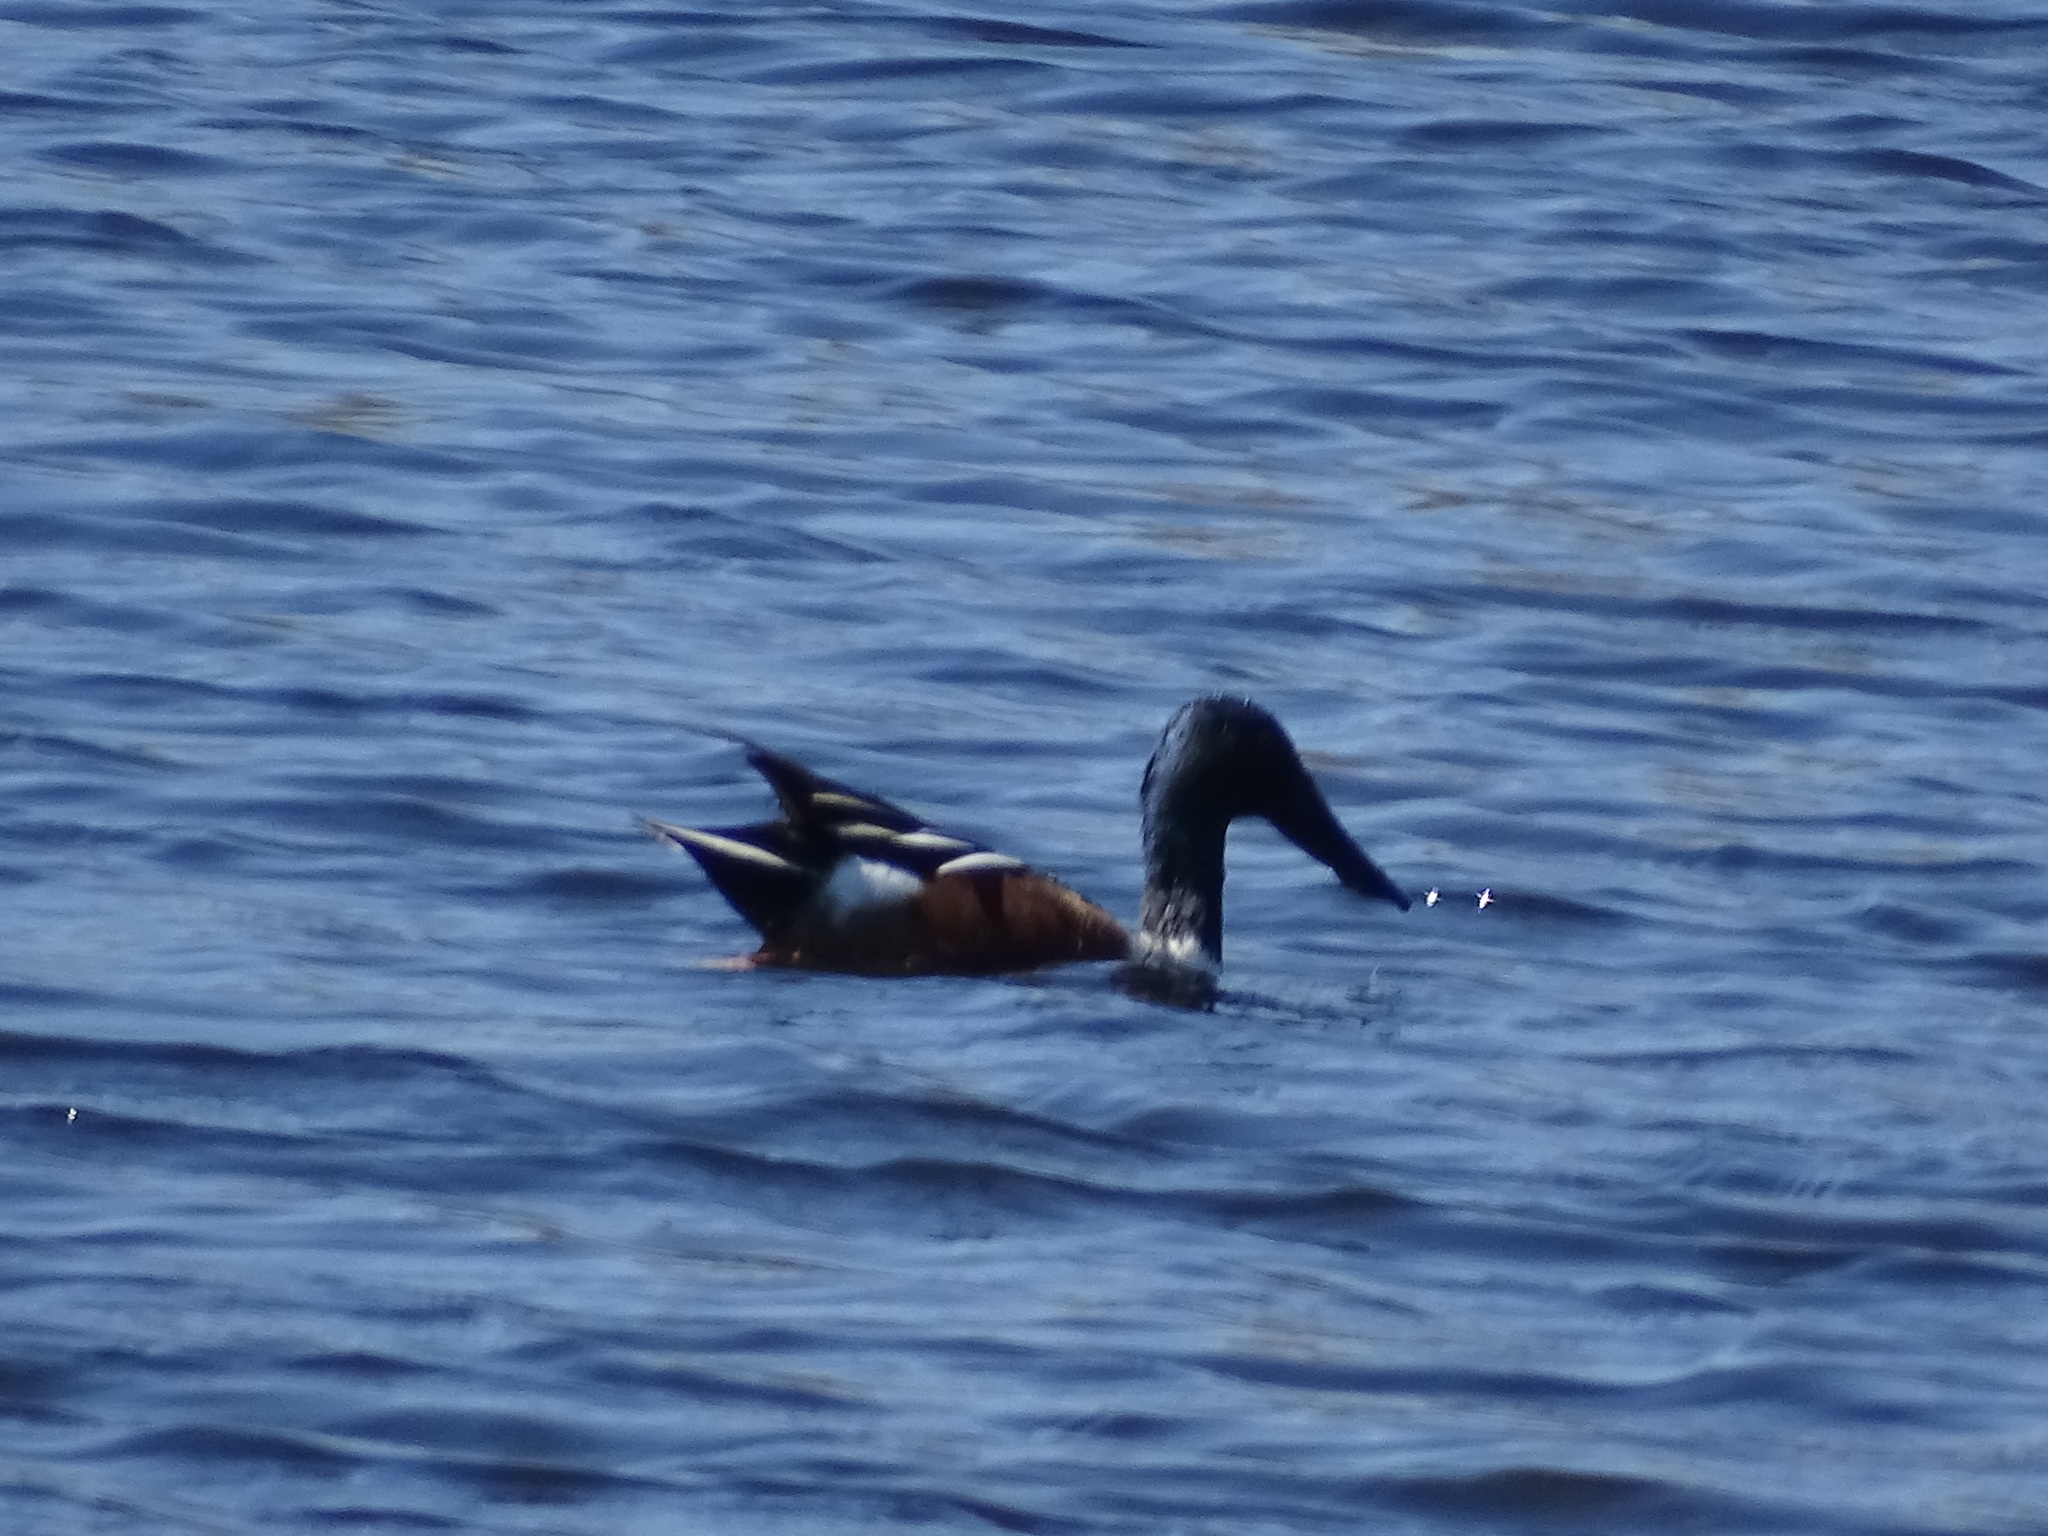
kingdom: Animalia
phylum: Chordata
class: Aves
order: Anseriformes
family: Anatidae
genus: Spatula
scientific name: Spatula clypeata
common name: Northern shoveler
